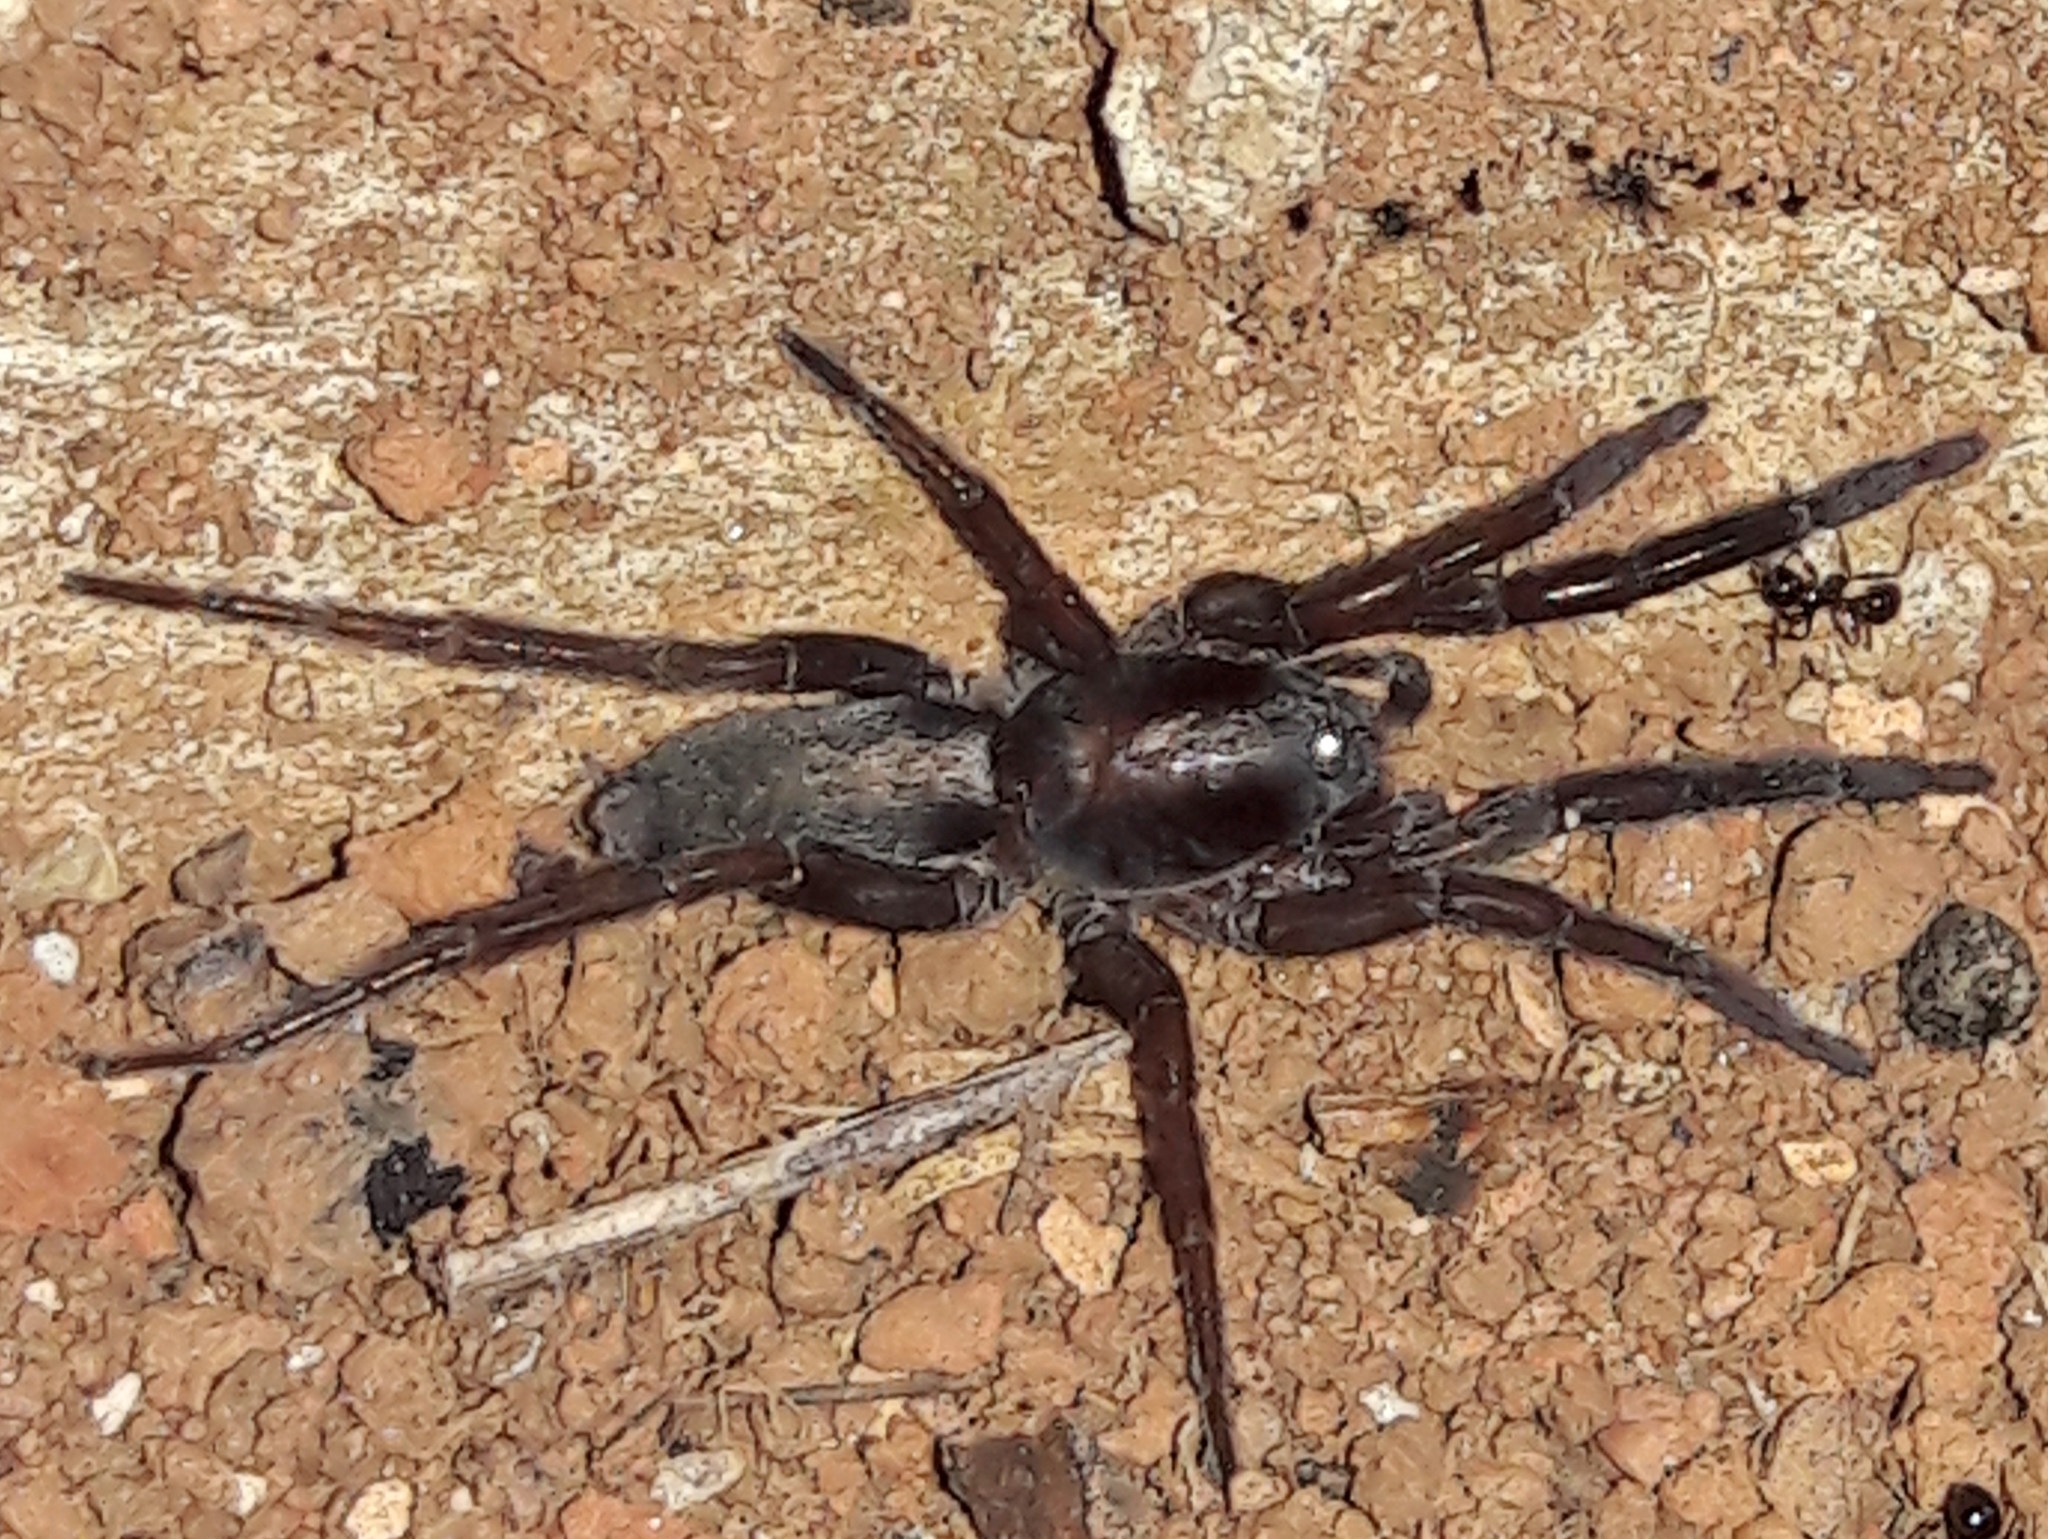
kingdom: Animalia
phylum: Arthropoda
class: Arachnida
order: Araneae
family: Miturgidae
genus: Teminius
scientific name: Teminius insularis
